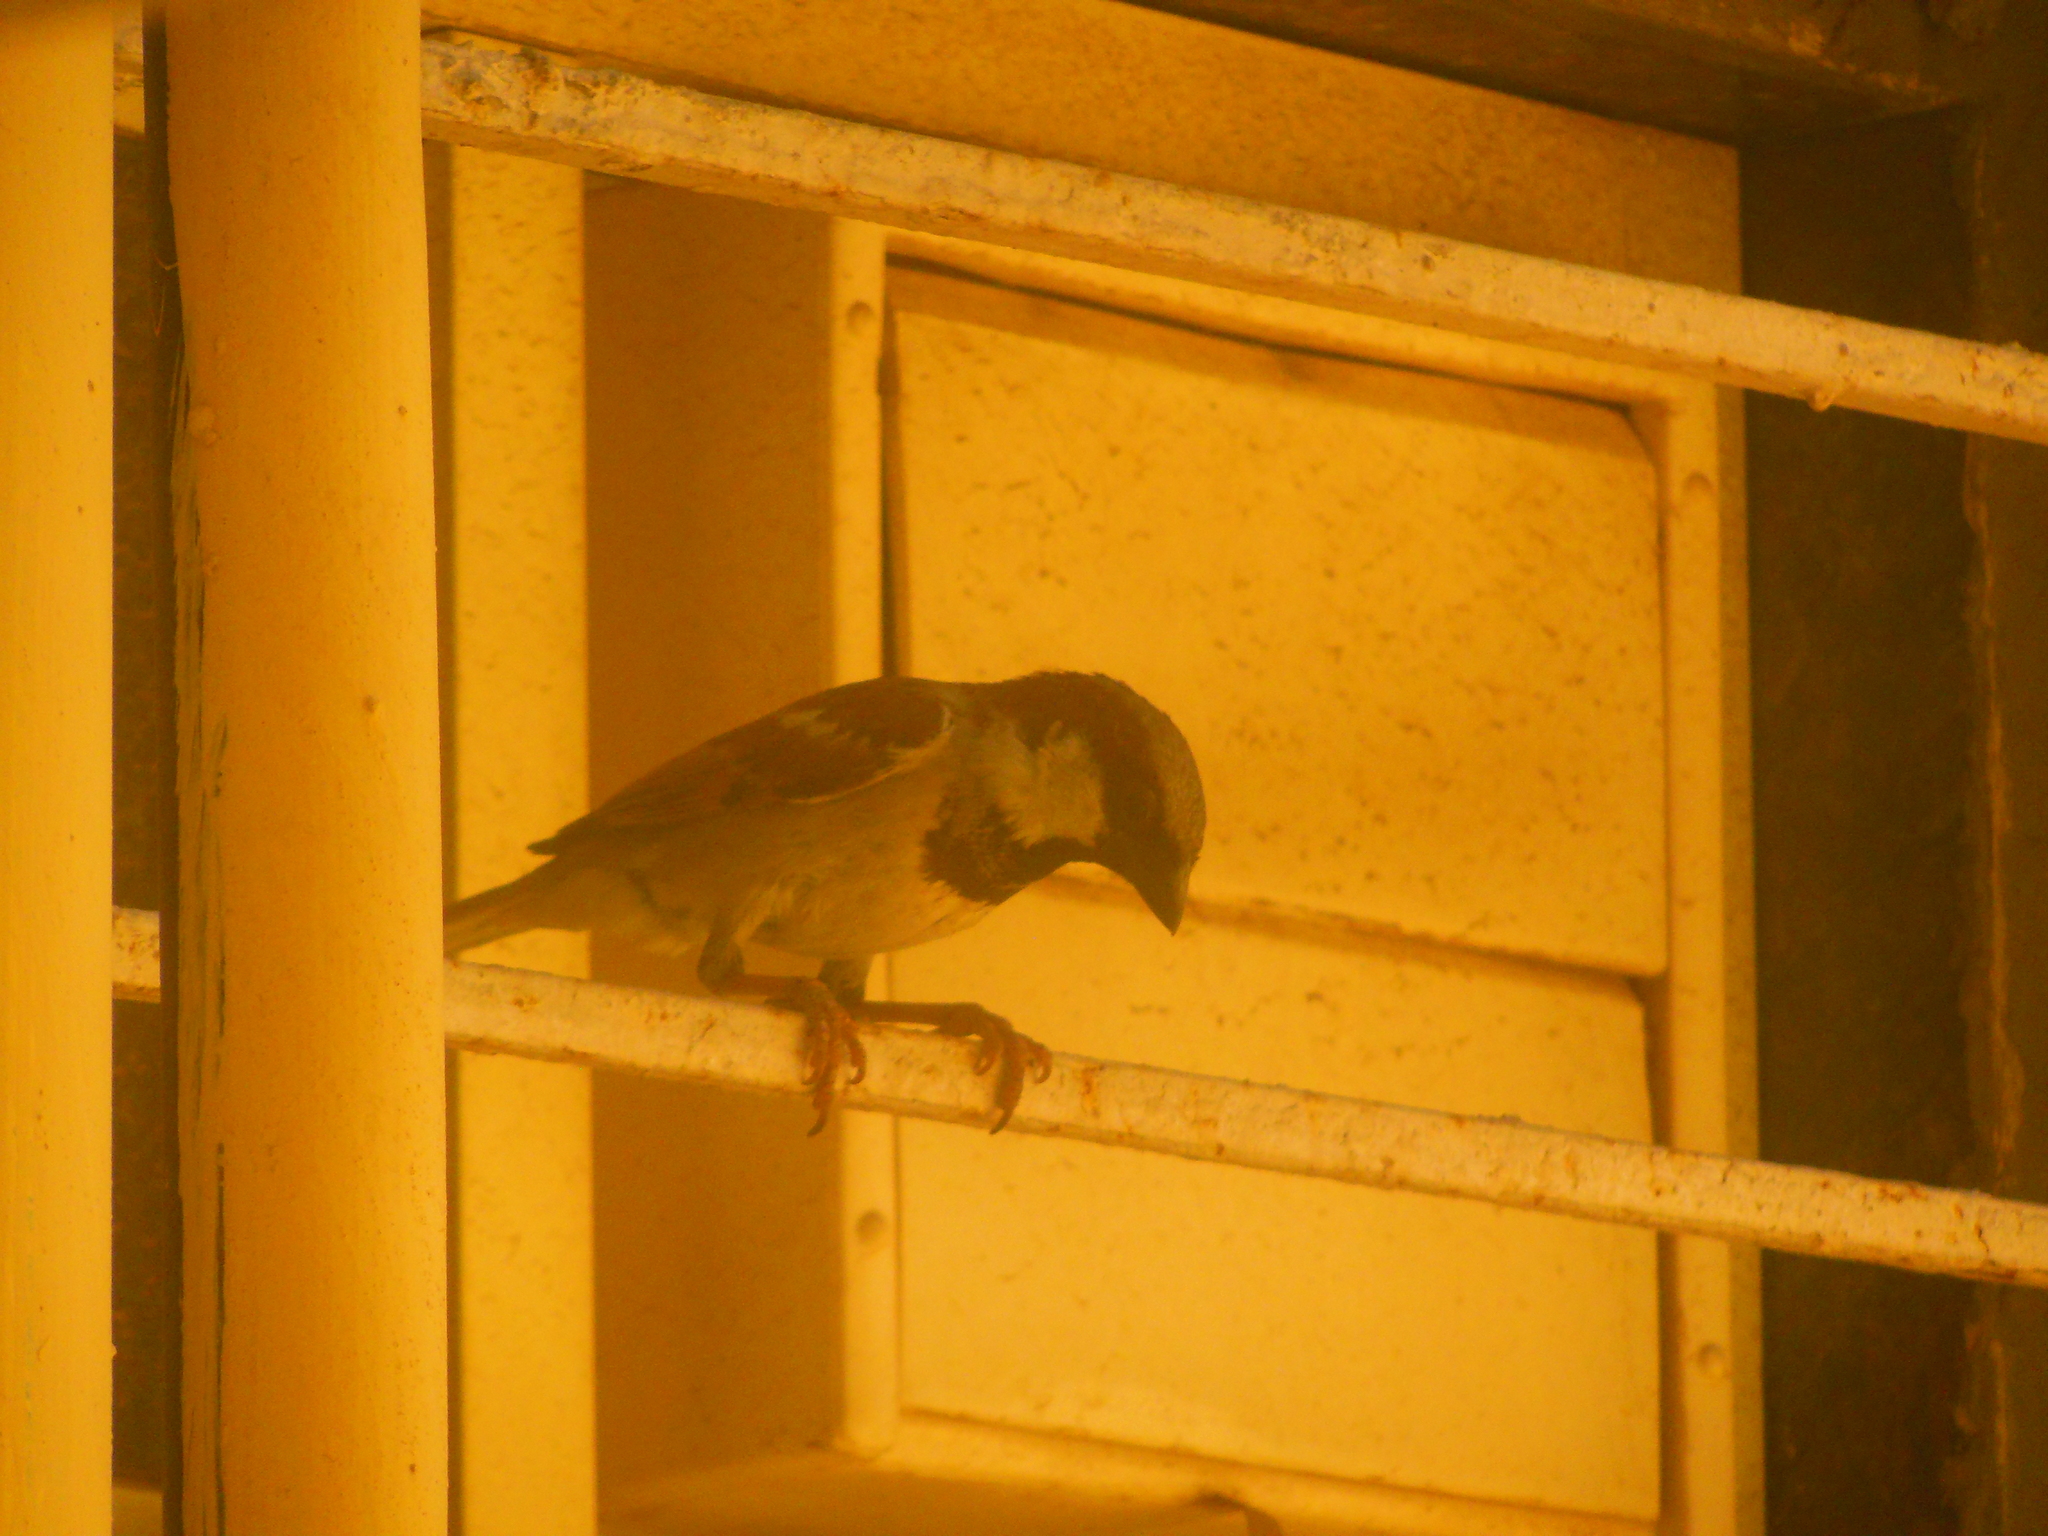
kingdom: Animalia
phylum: Chordata
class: Aves
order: Passeriformes
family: Passeridae
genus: Passer
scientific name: Passer domesticus
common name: House sparrow
